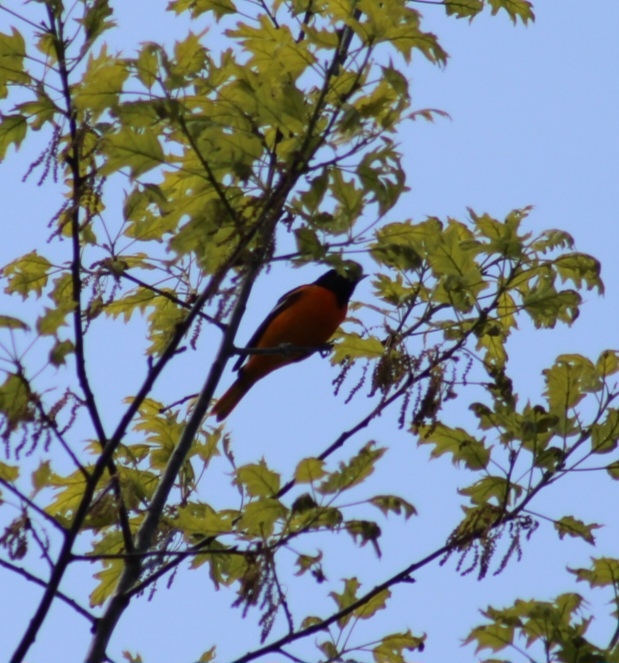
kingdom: Animalia
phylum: Chordata
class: Aves
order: Passeriformes
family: Icteridae
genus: Icterus
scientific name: Icterus galbula
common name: Baltimore oriole
